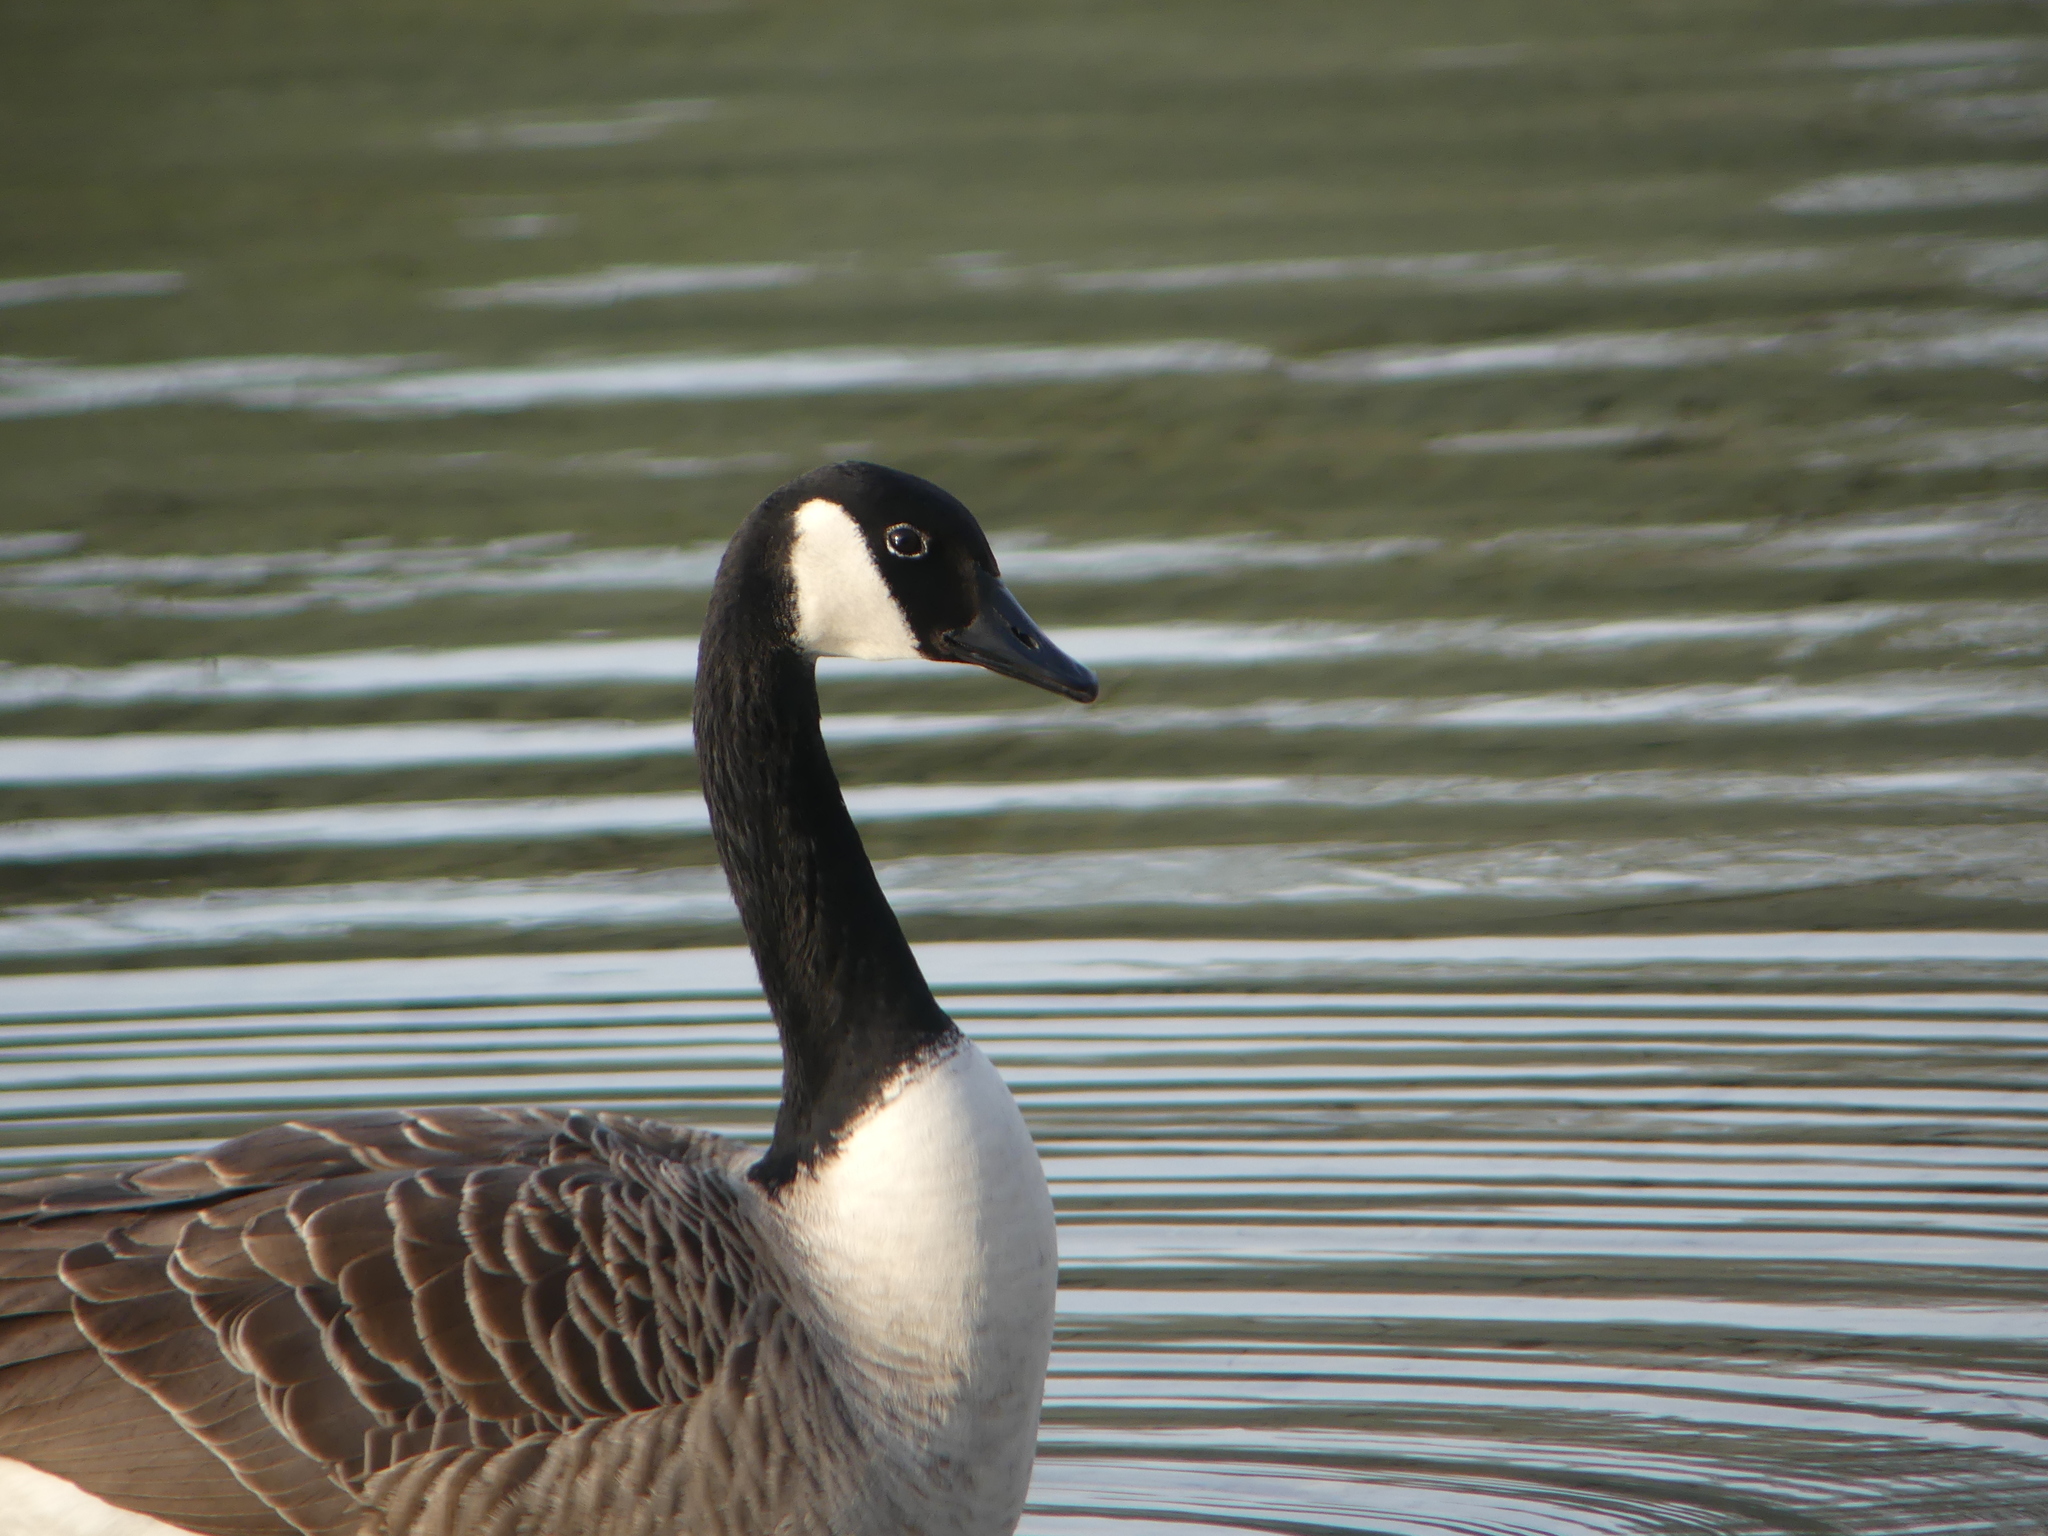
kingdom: Animalia
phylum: Chordata
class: Aves
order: Anseriformes
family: Anatidae
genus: Branta
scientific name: Branta canadensis
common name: Canada goose
